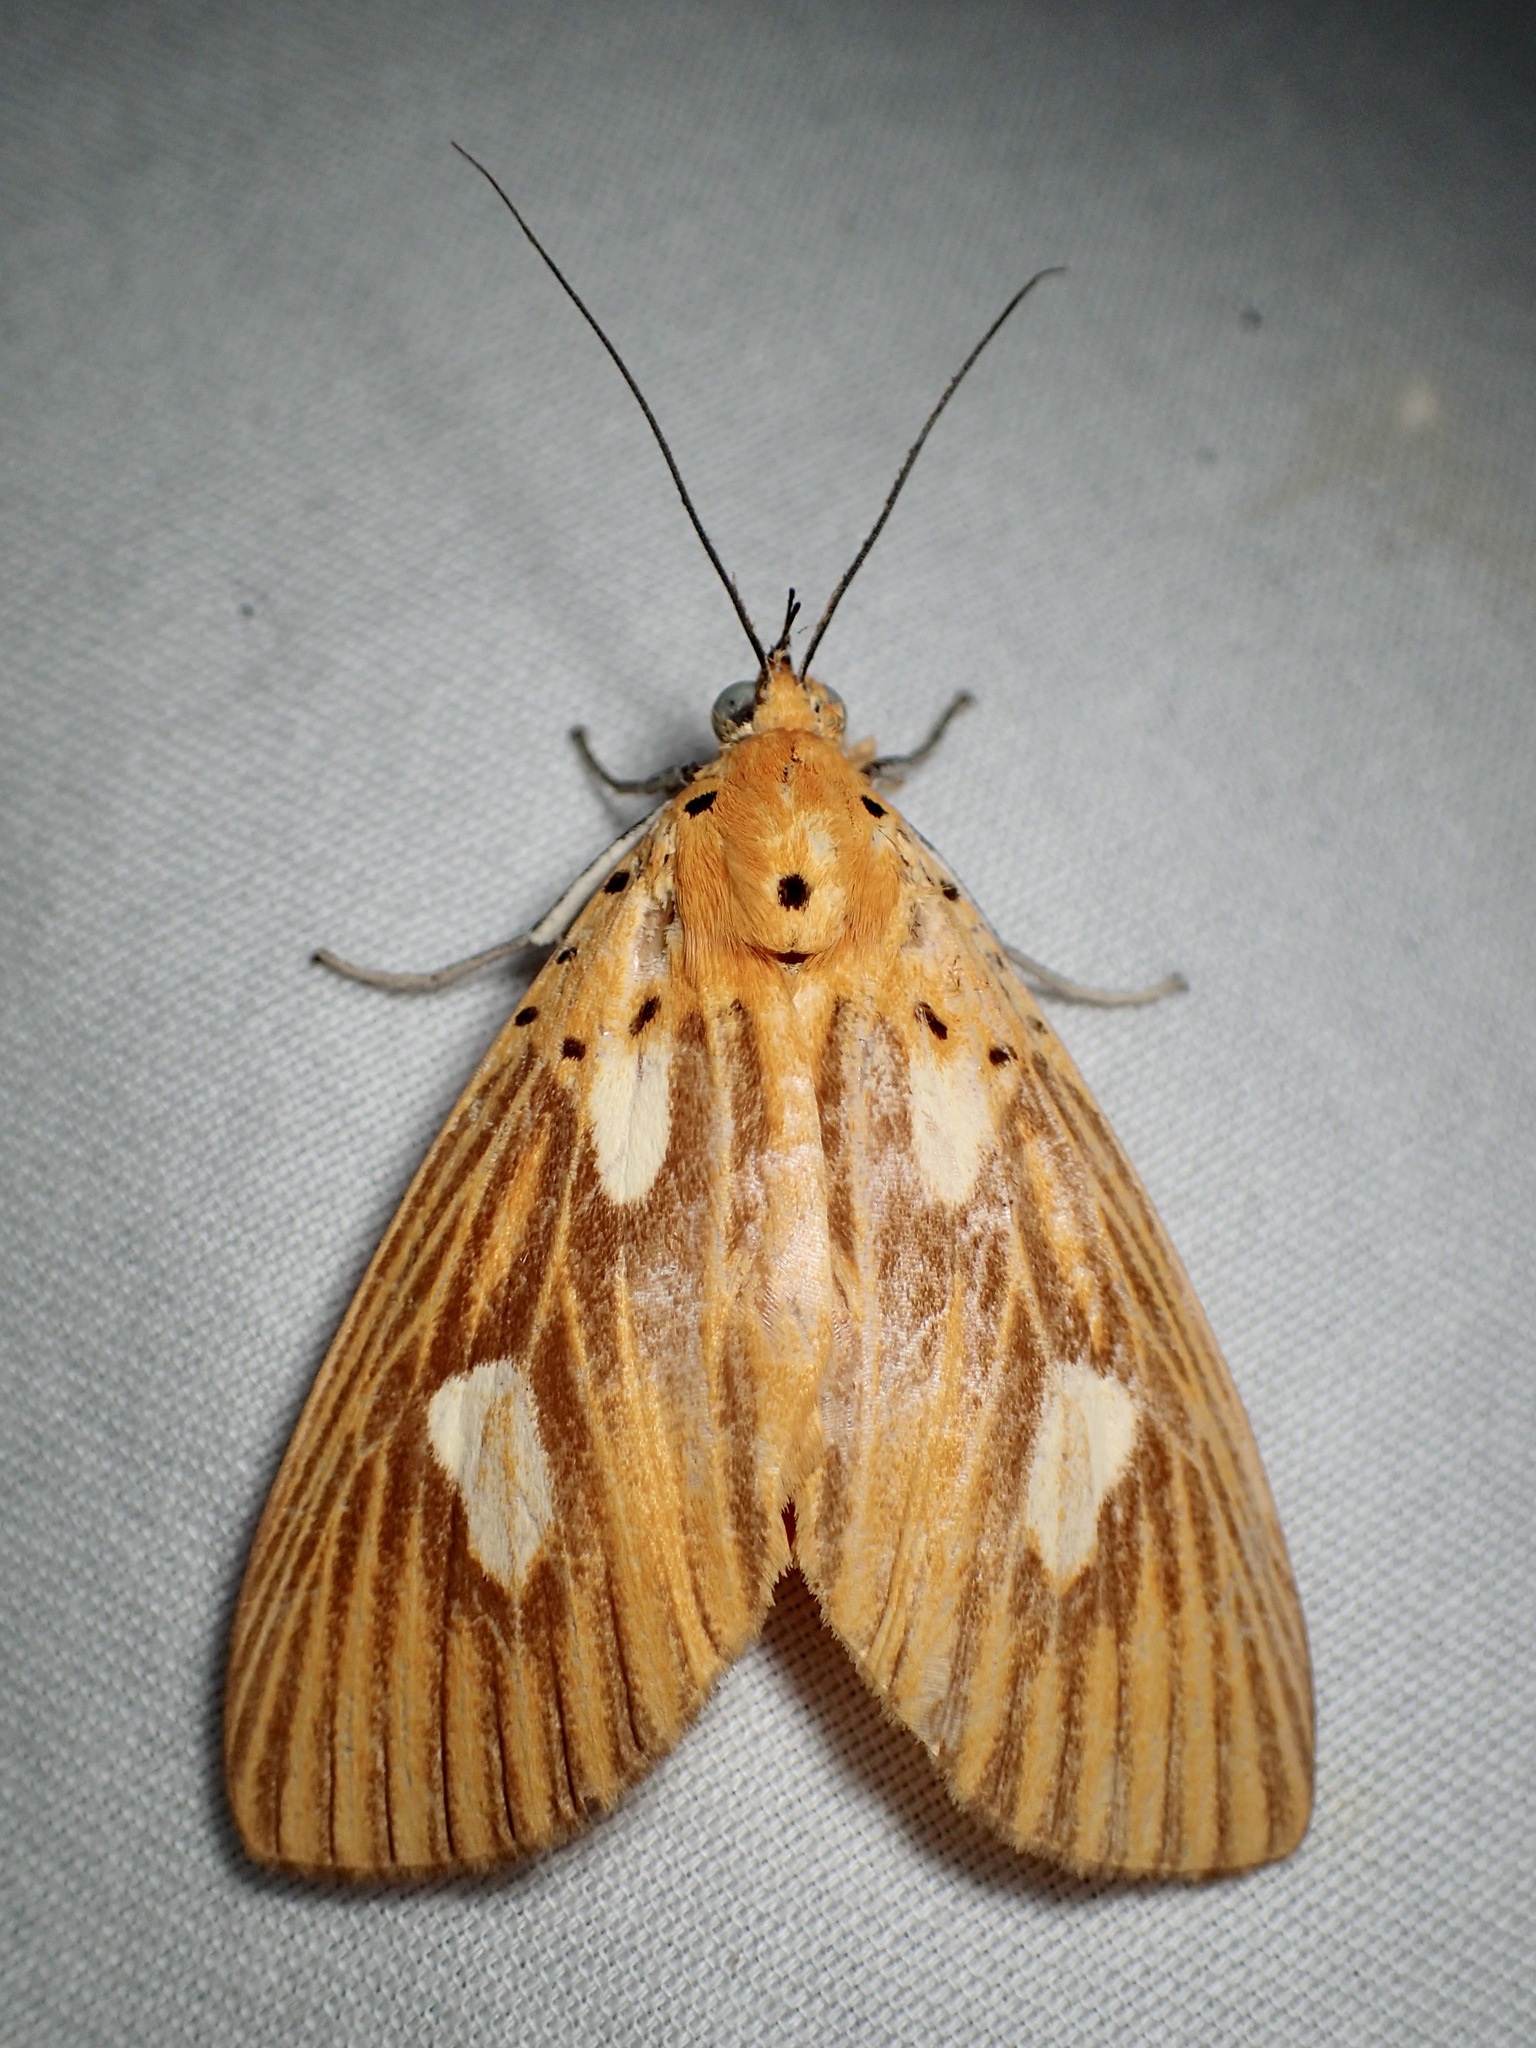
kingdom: Animalia
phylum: Arthropoda
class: Insecta
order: Lepidoptera
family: Erebidae
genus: Asota
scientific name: Asota orbona
